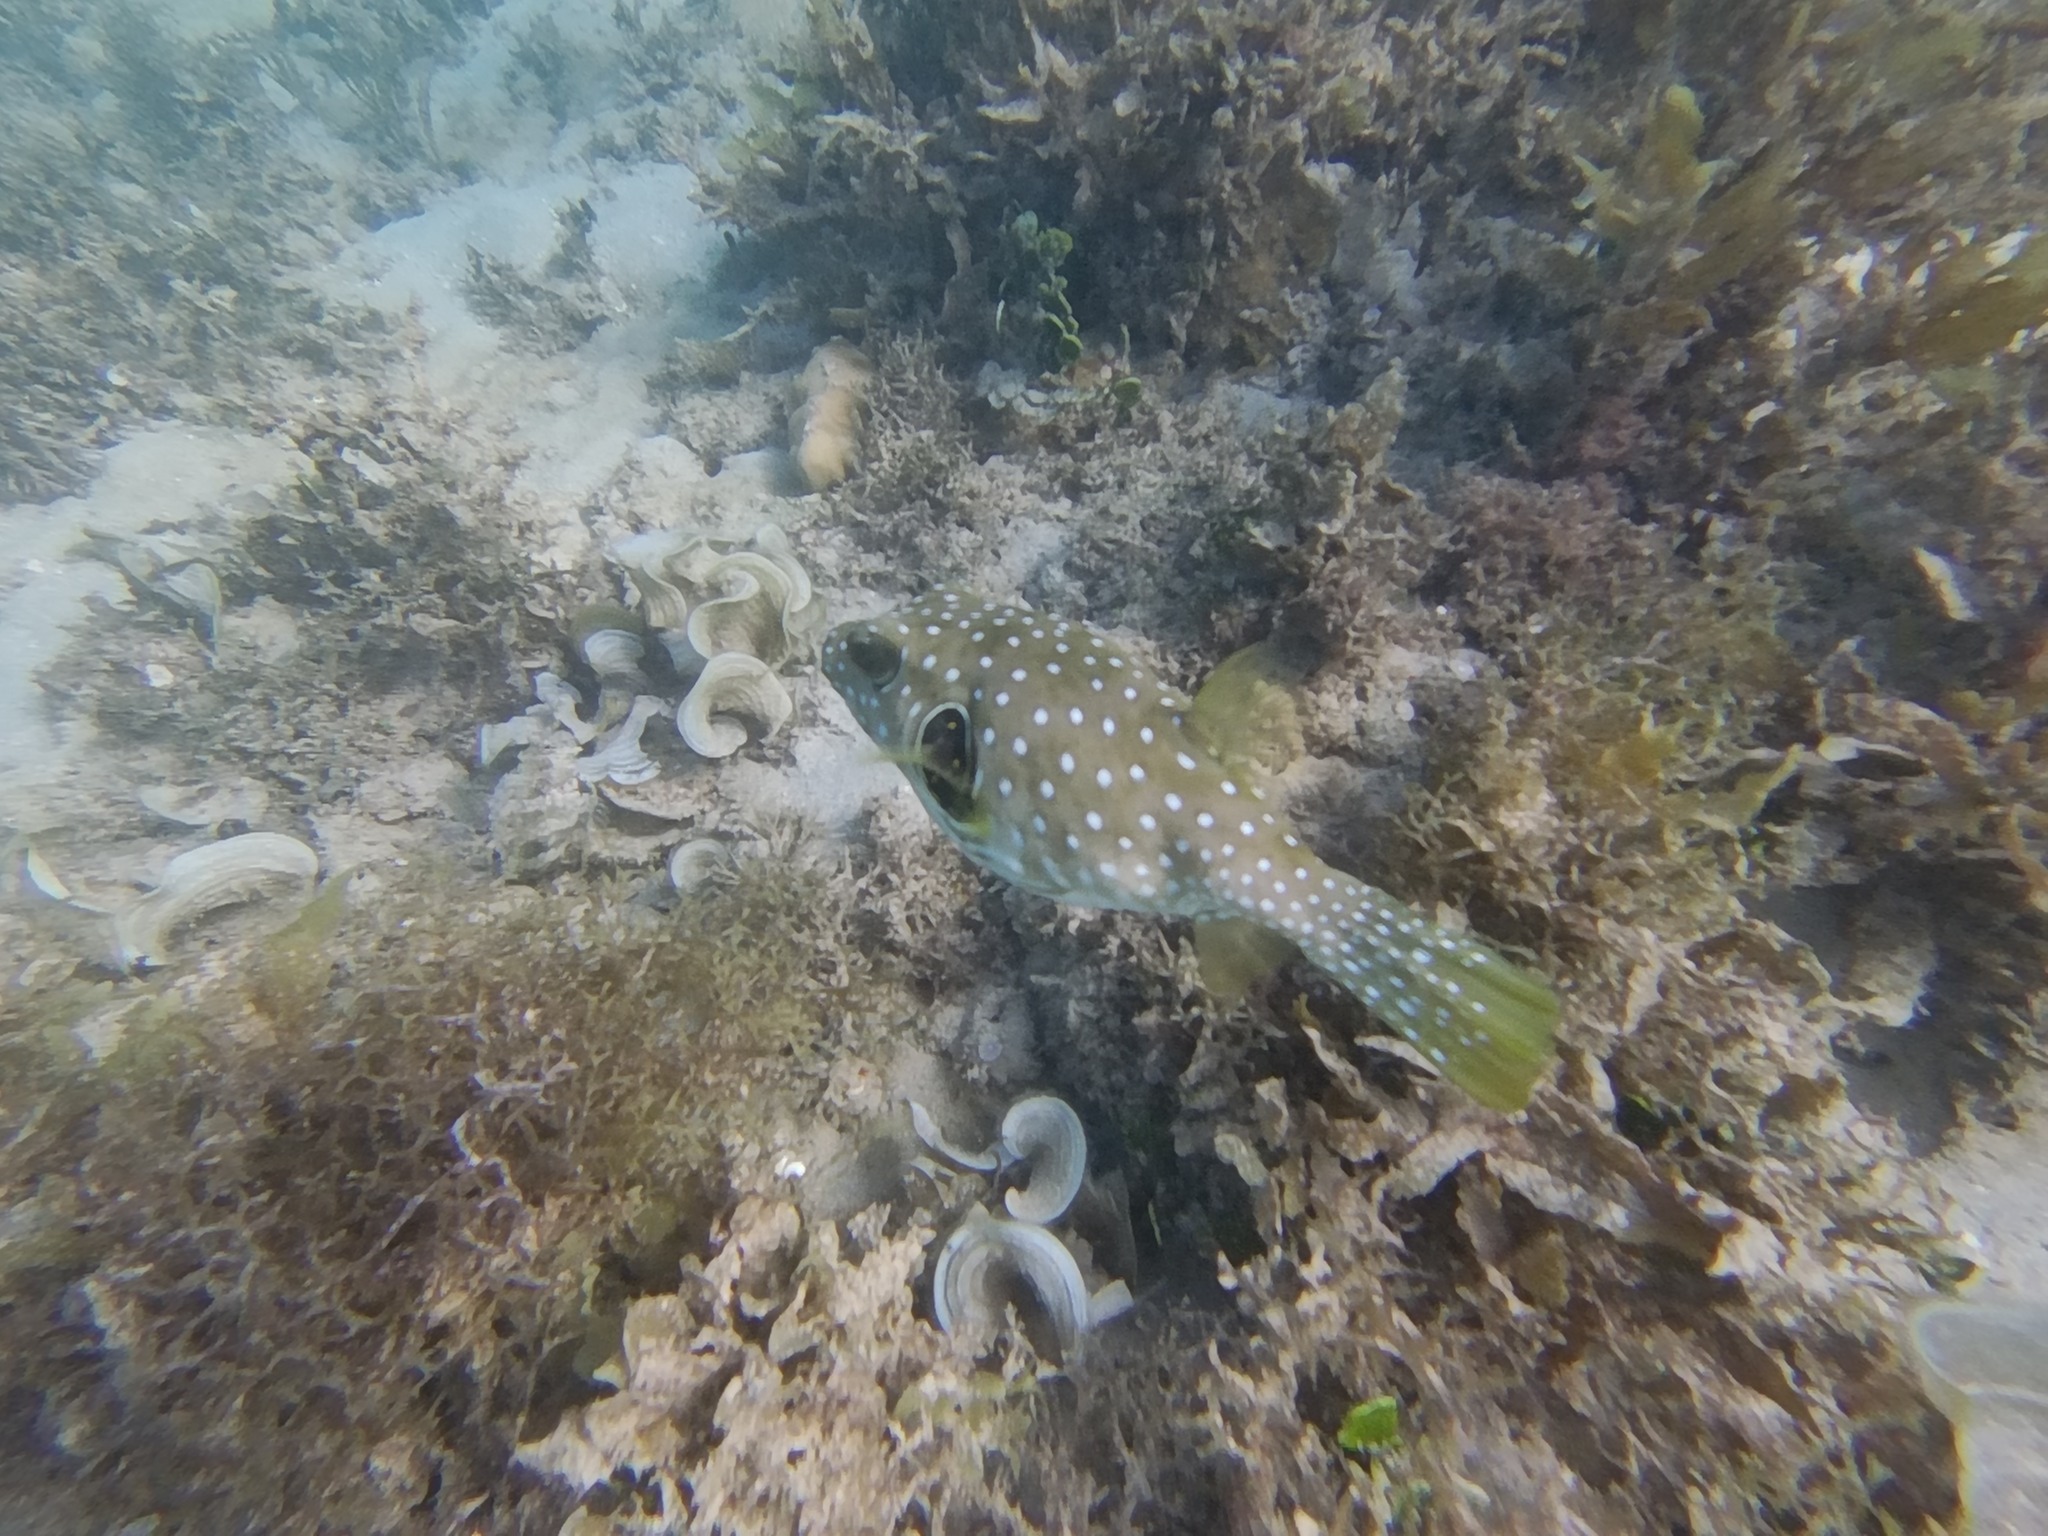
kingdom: Animalia
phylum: Chordata
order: Tetraodontiformes
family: Tetraodontidae
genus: Arothron
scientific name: Arothron hispidus
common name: Stripebelly puffer
